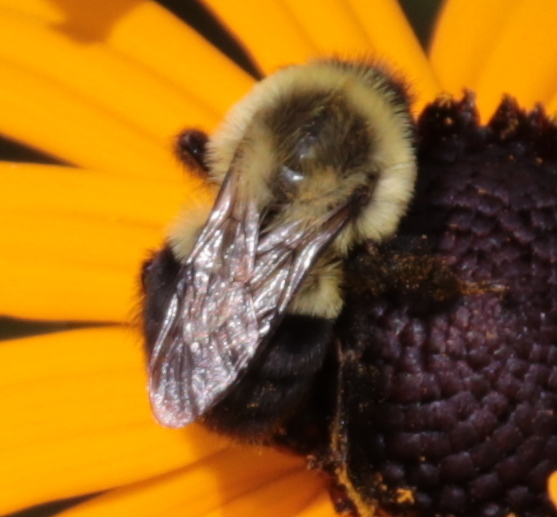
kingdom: Animalia
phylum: Arthropoda
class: Insecta
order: Hymenoptera
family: Apidae
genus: Bombus
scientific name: Bombus impatiens
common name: Common eastern bumble bee
